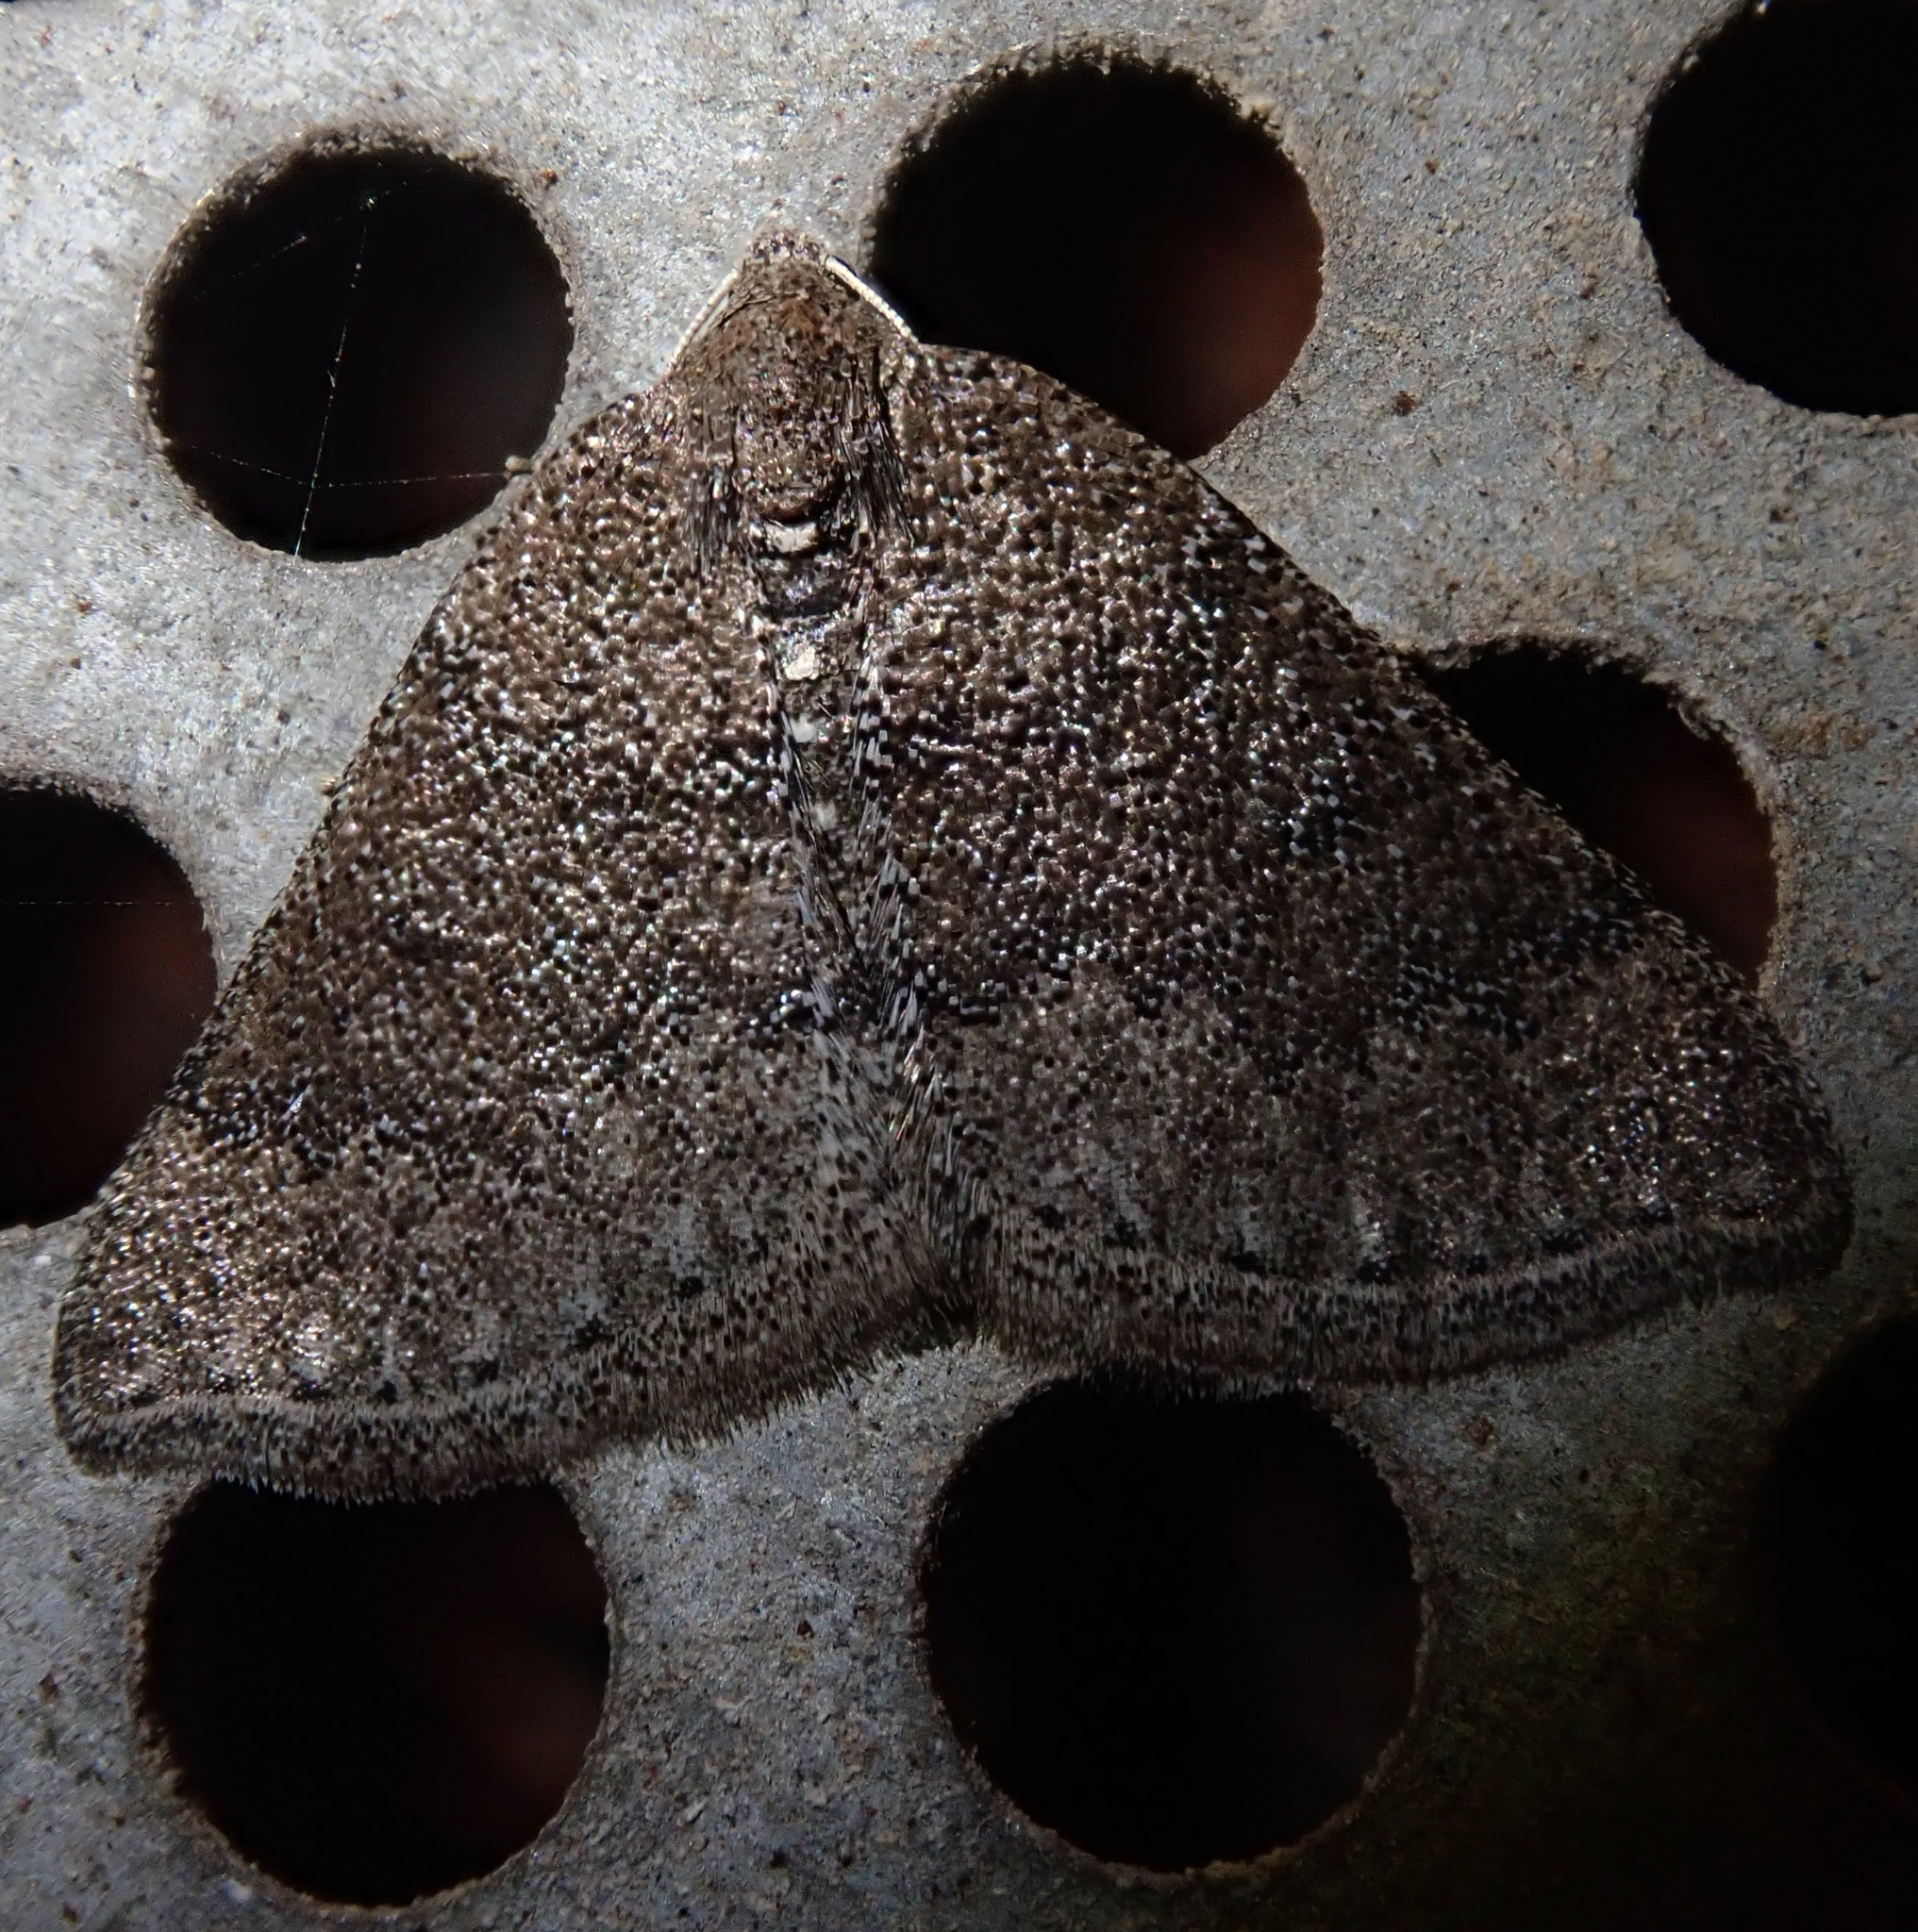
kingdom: Animalia
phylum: Arthropoda
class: Insecta
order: Lepidoptera
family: Geometridae
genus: Aleucis
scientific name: Aleucis distinctata
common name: Sloe carpet
